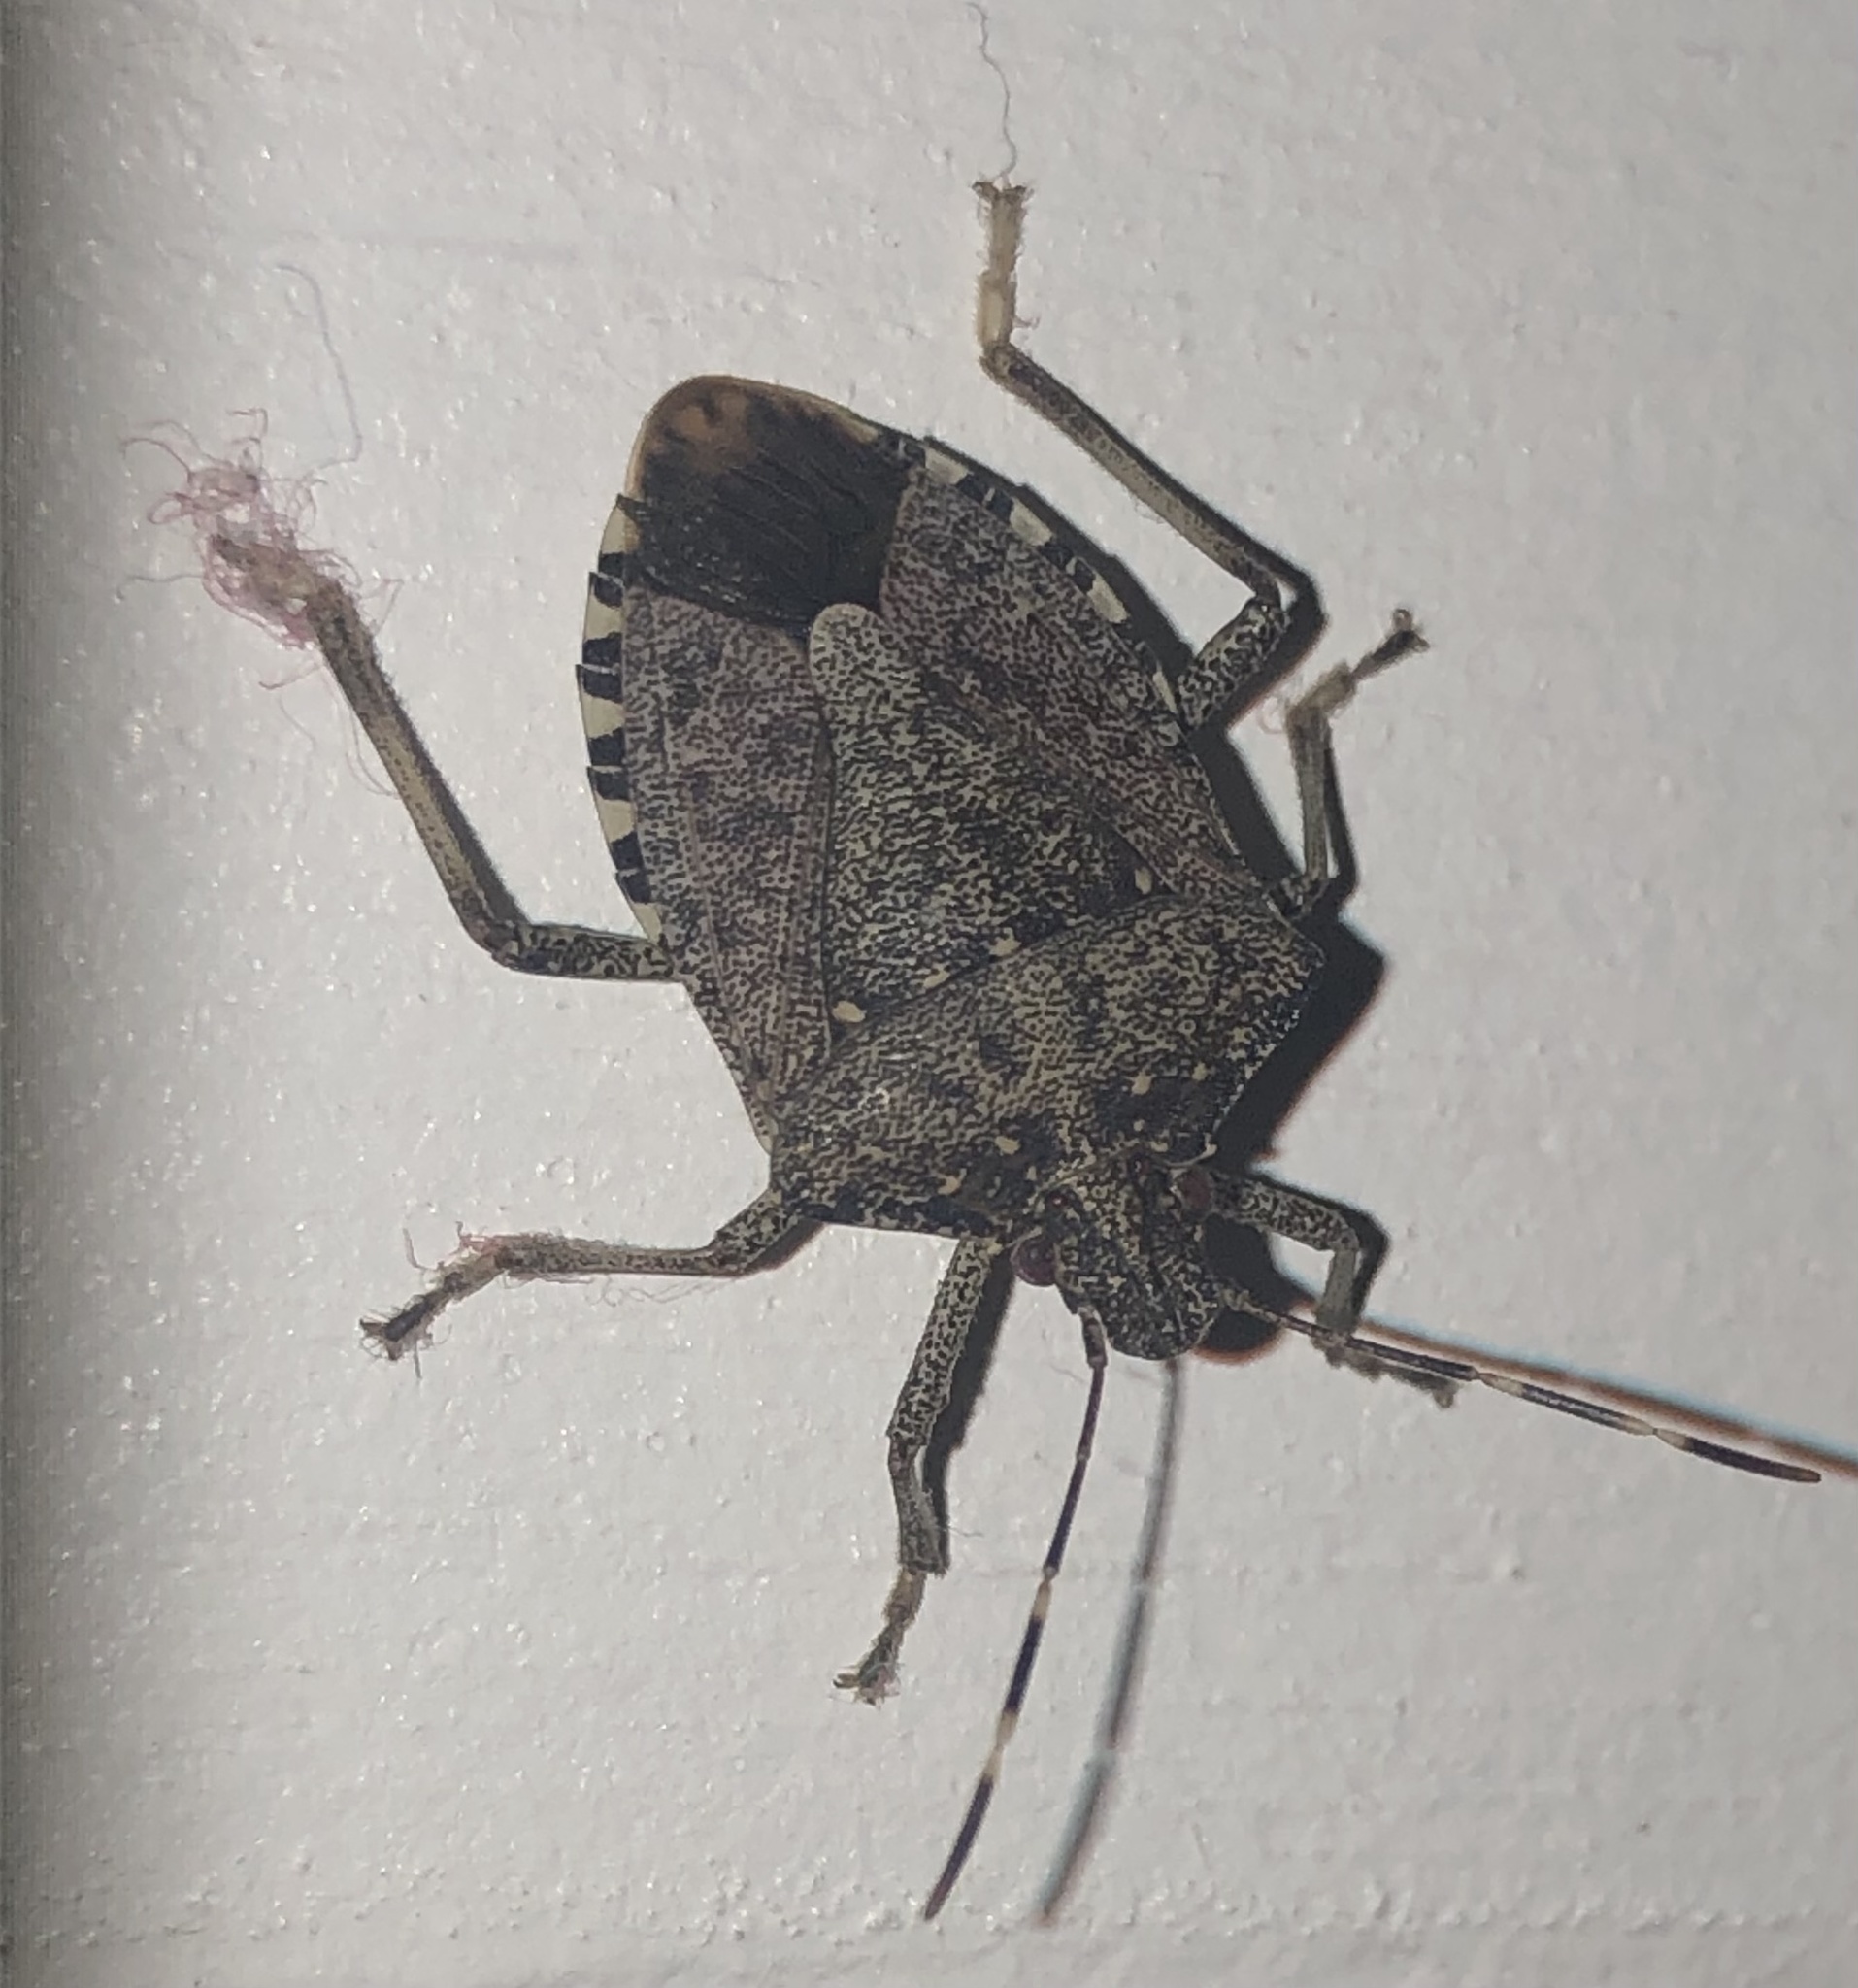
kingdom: Animalia
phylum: Arthropoda
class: Insecta
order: Hemiptera
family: Pentatomidae
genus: Halyomorpha
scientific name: Halyomorpha halys
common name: Brown marmorated stink bug
